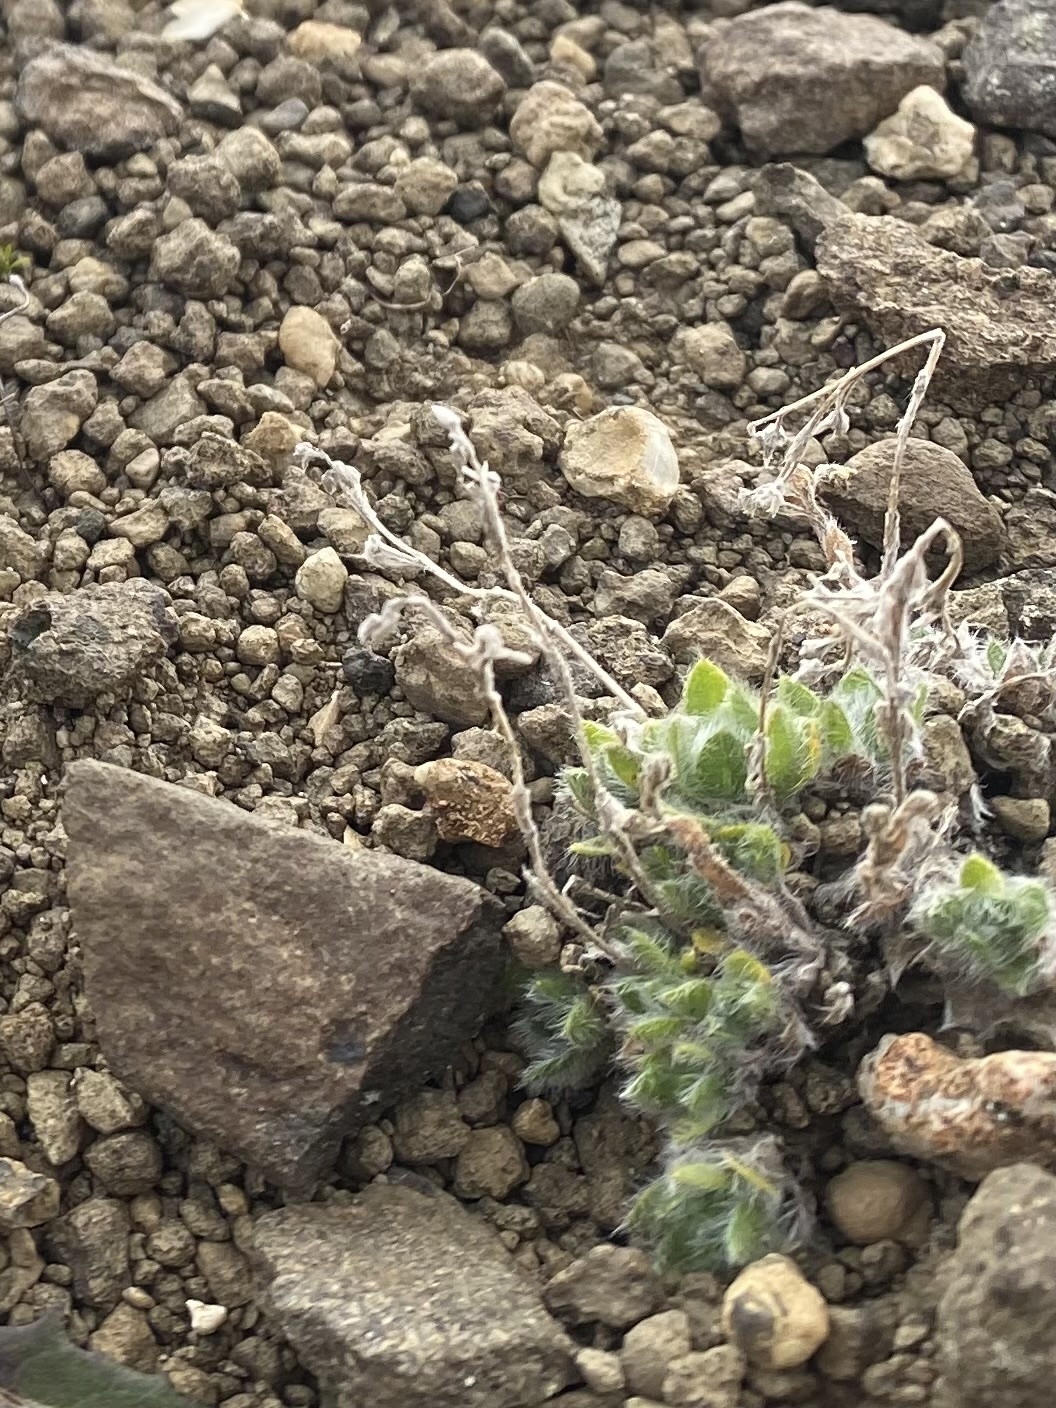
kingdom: Plantae
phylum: Tracheophyta
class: Magnoliopsida
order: Boraginales
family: Boraginaceae
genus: Eritrichium
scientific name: Eritrichium villosum
